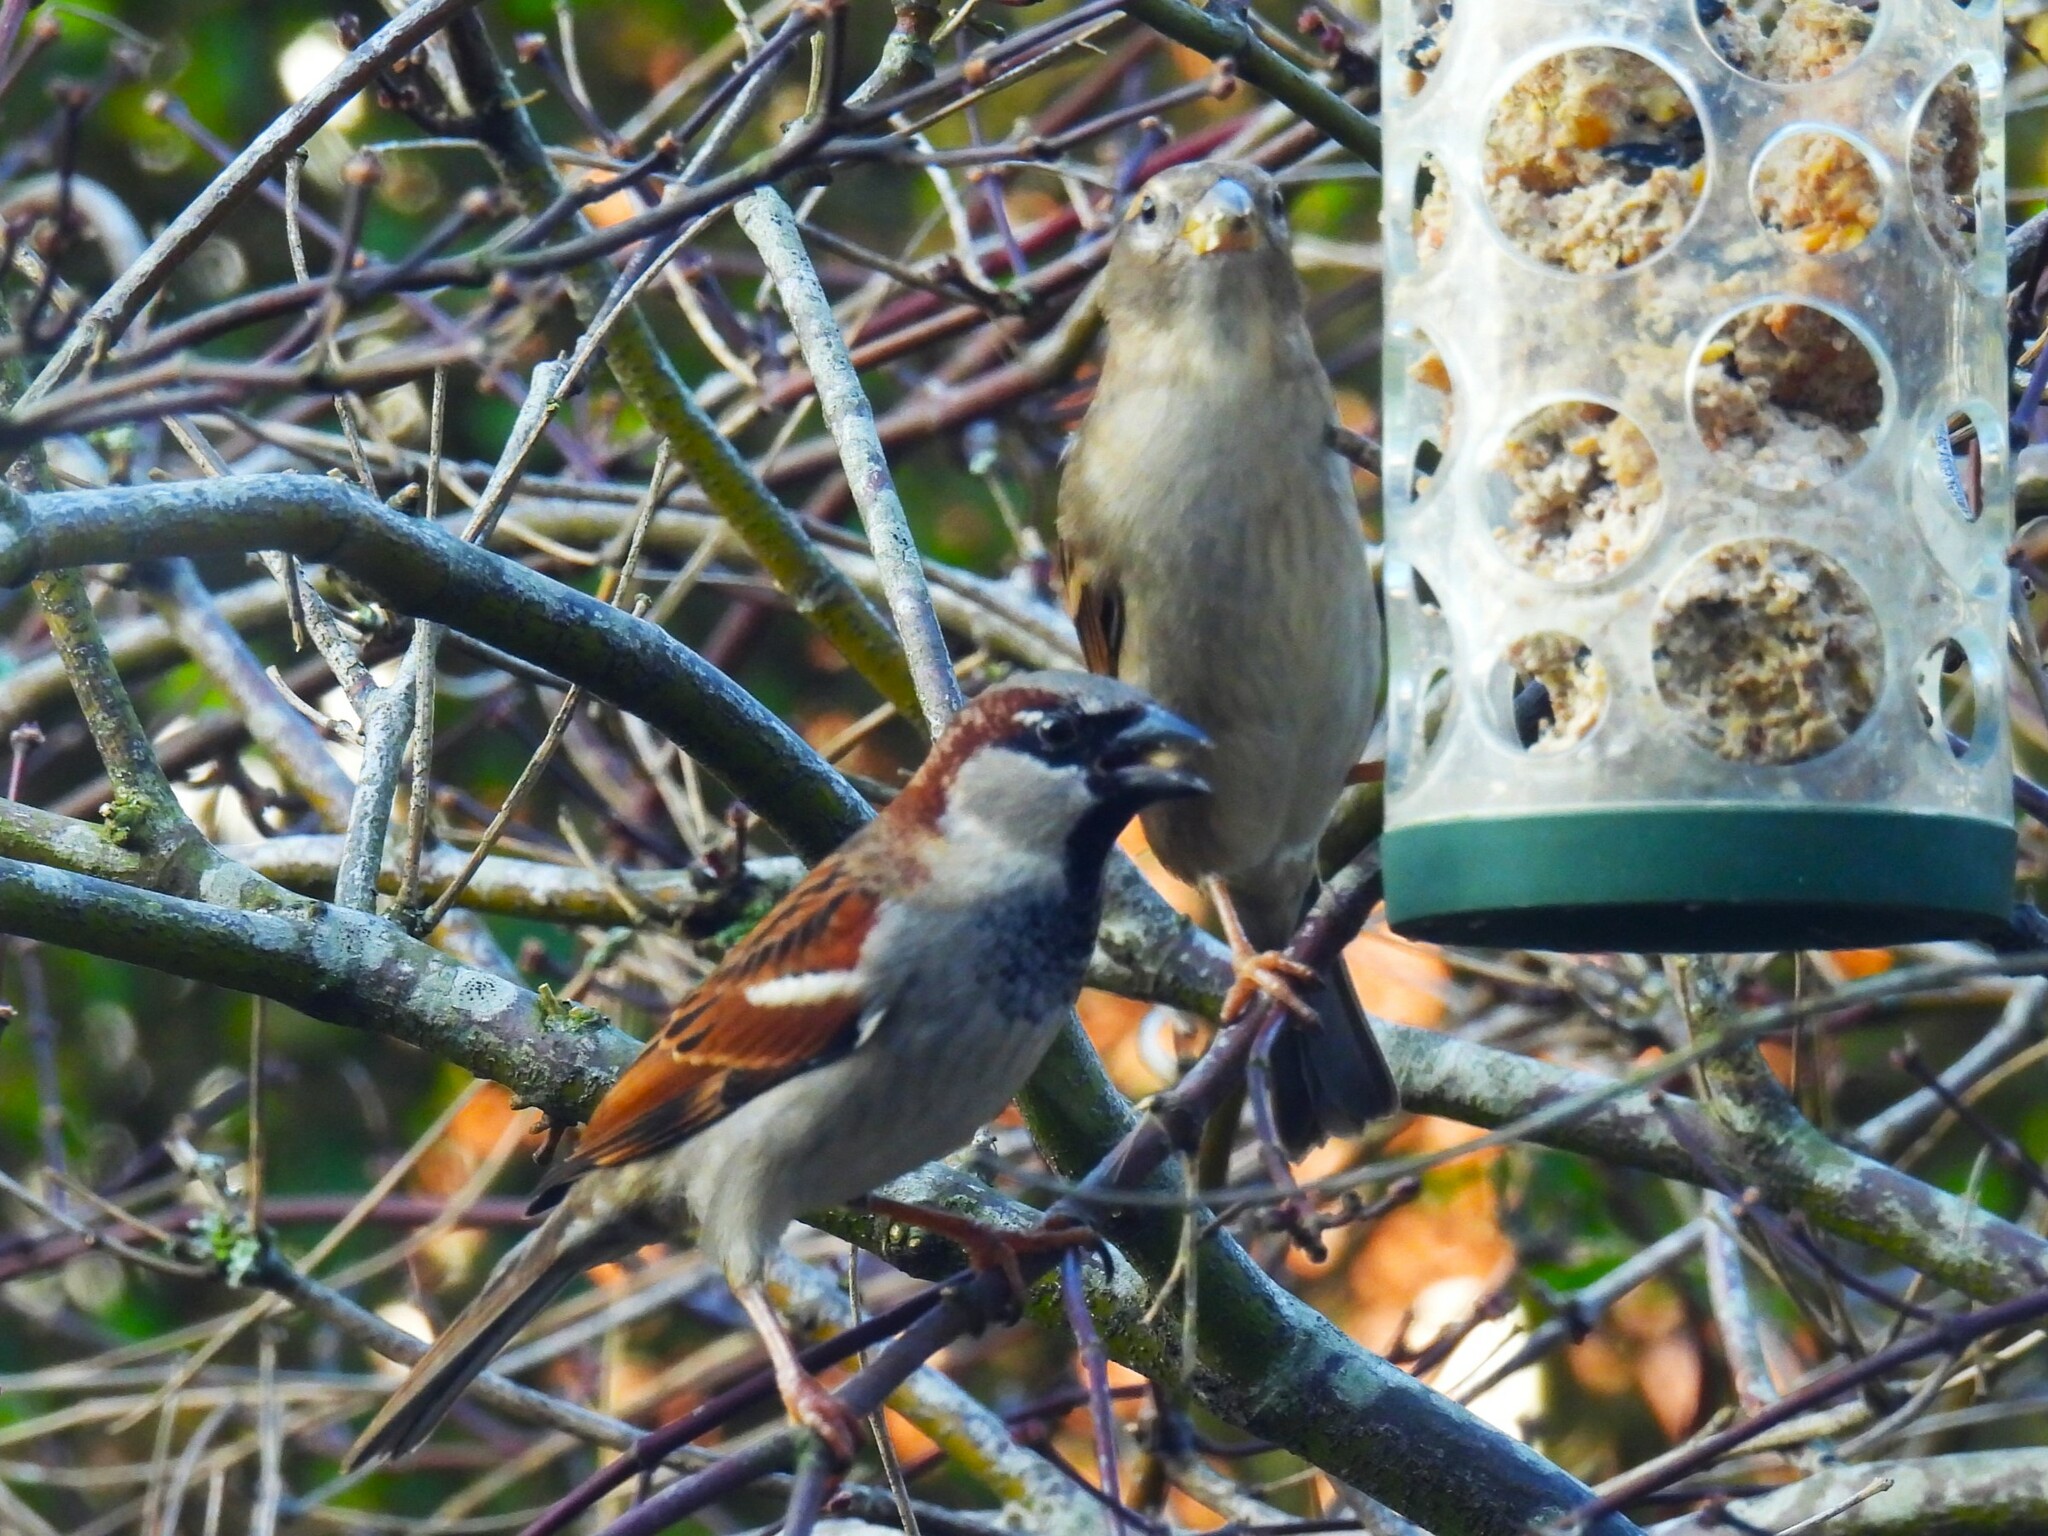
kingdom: Animalia
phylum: Chordata
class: Aves
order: Passeriformes
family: Passeridae
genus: Passer
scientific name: Passer domesticus
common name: House sparrow
